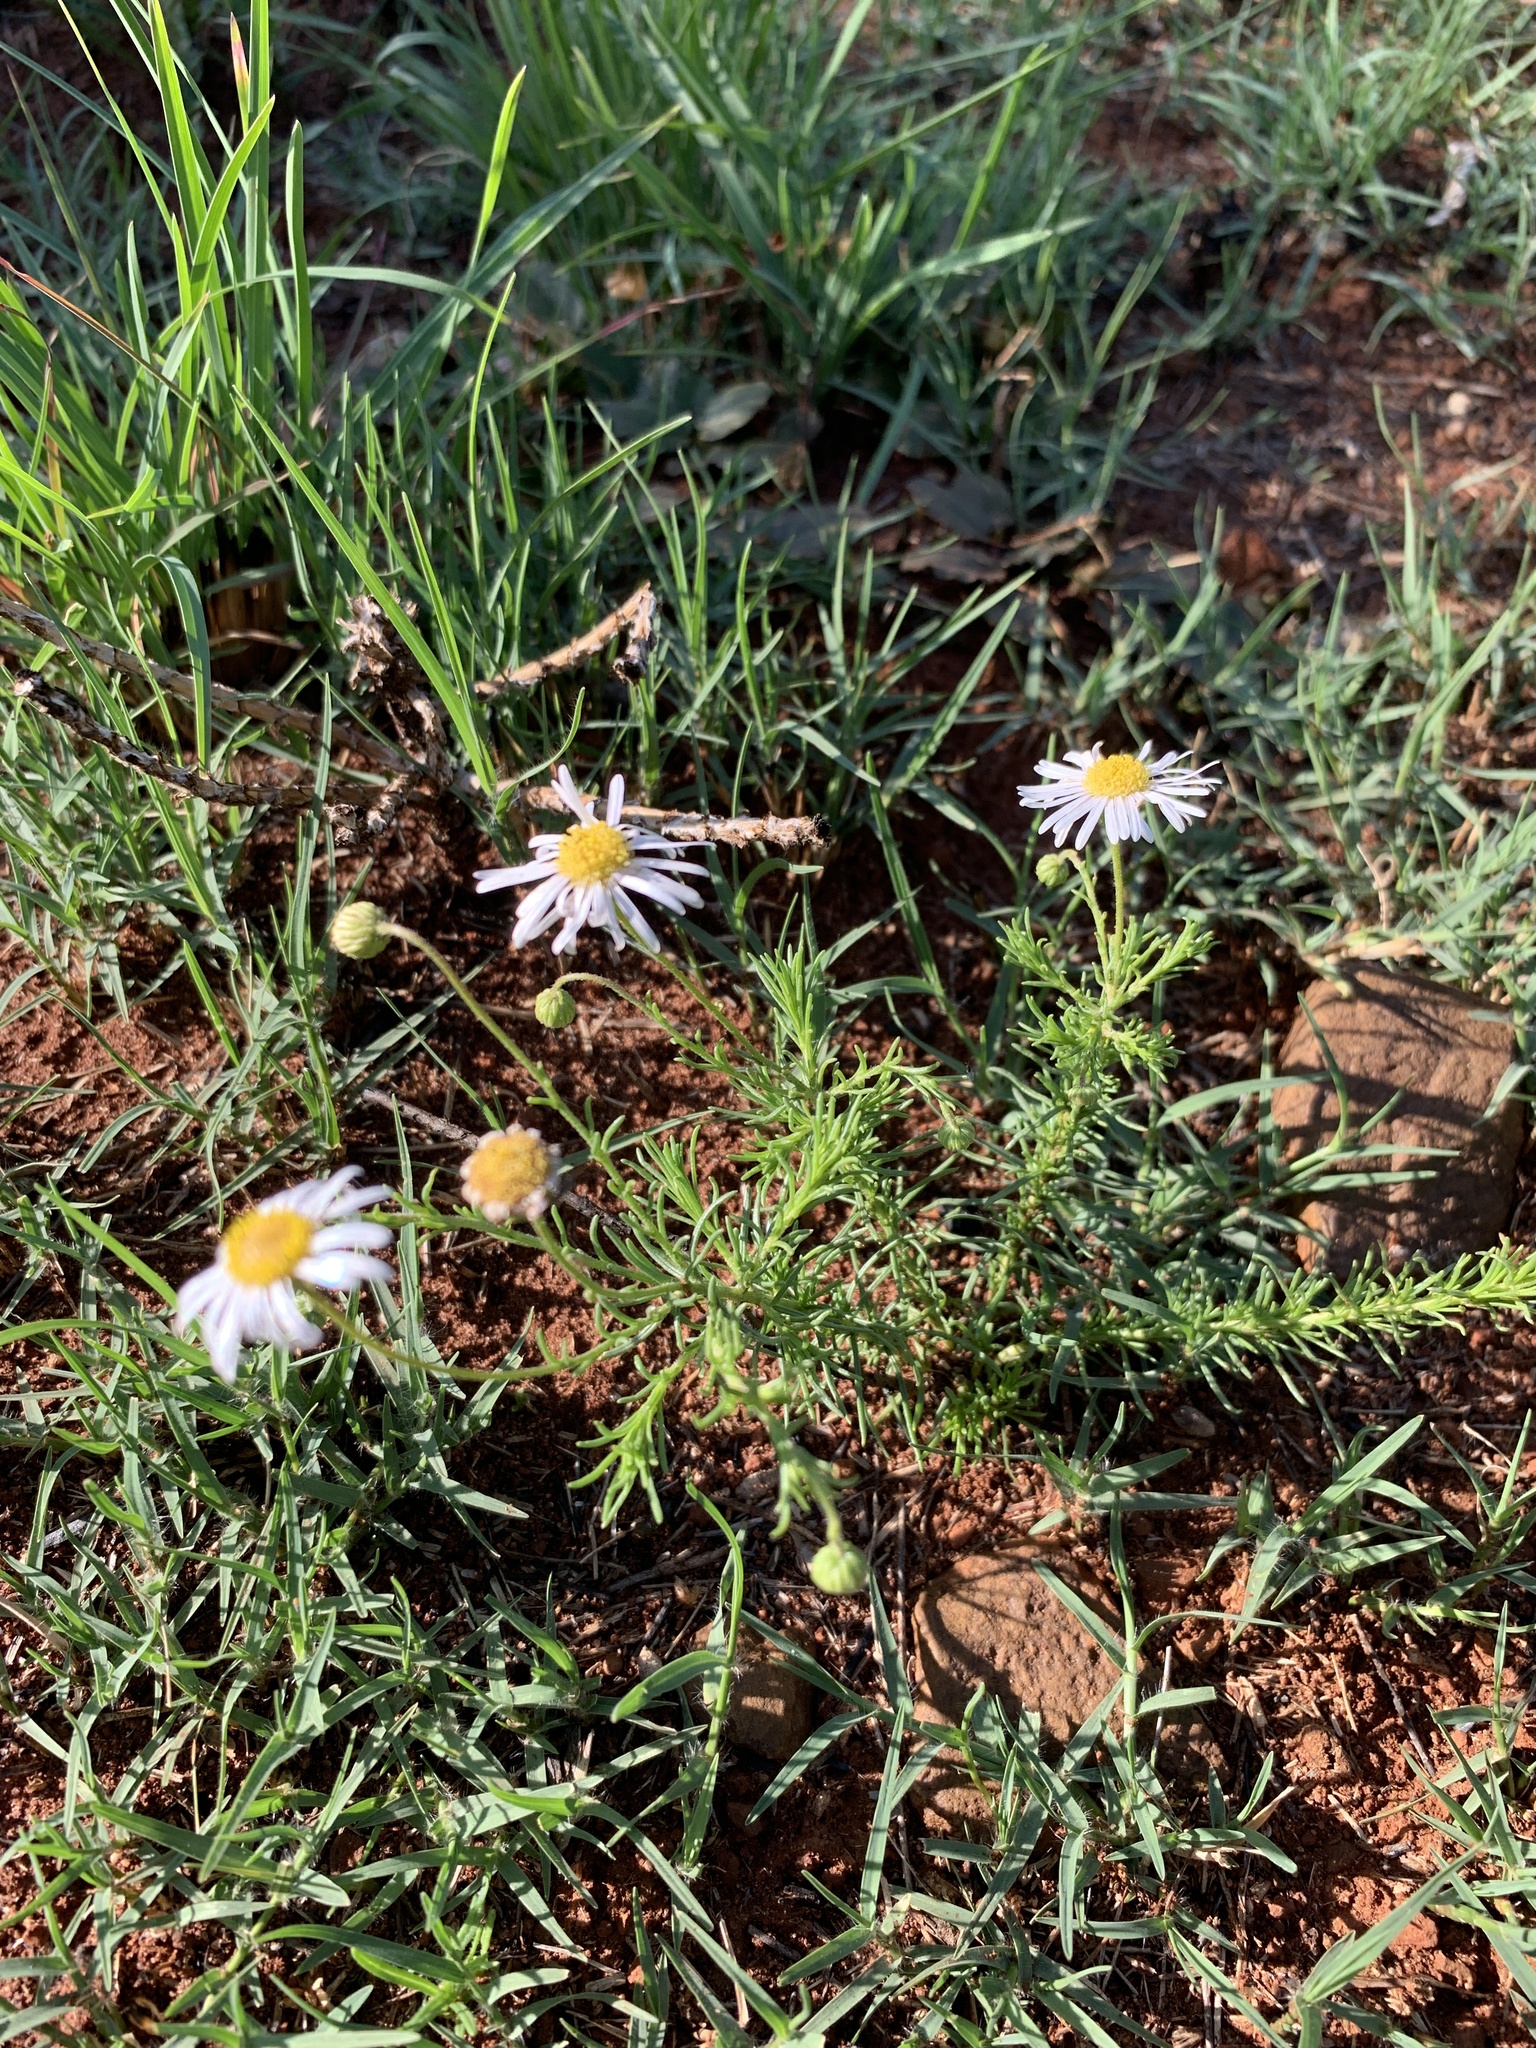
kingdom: Plantae
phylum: Tracheophyta
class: Magnoliopsida
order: Asterales
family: Asteraceae
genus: Felicia
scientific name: Felicia muricata
